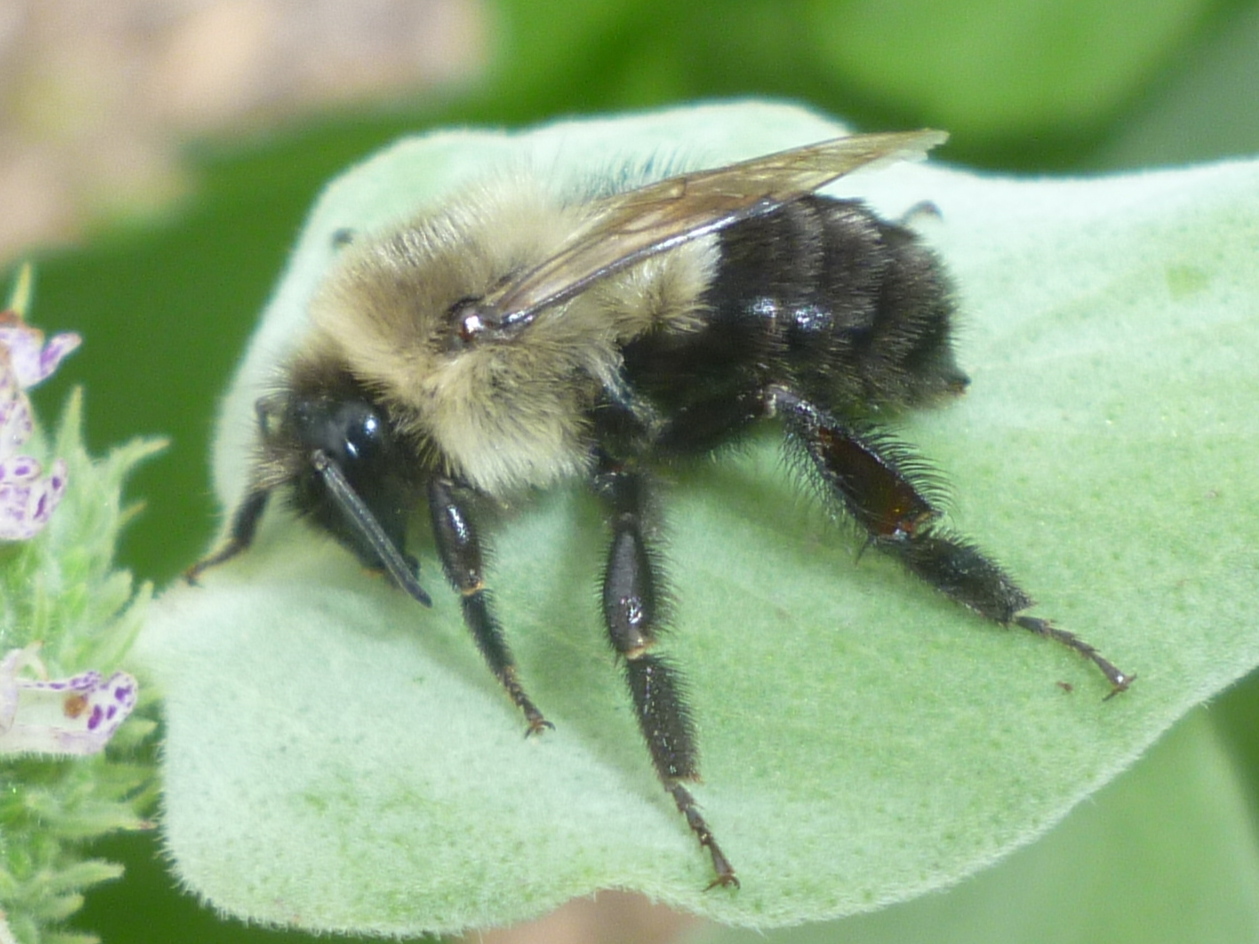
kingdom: Animalia
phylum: Arthropoda
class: Insecta
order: Hymenoptera
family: Apidae
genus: Bombus
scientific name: Bombus impatiens
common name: Common eastern bumble bee
